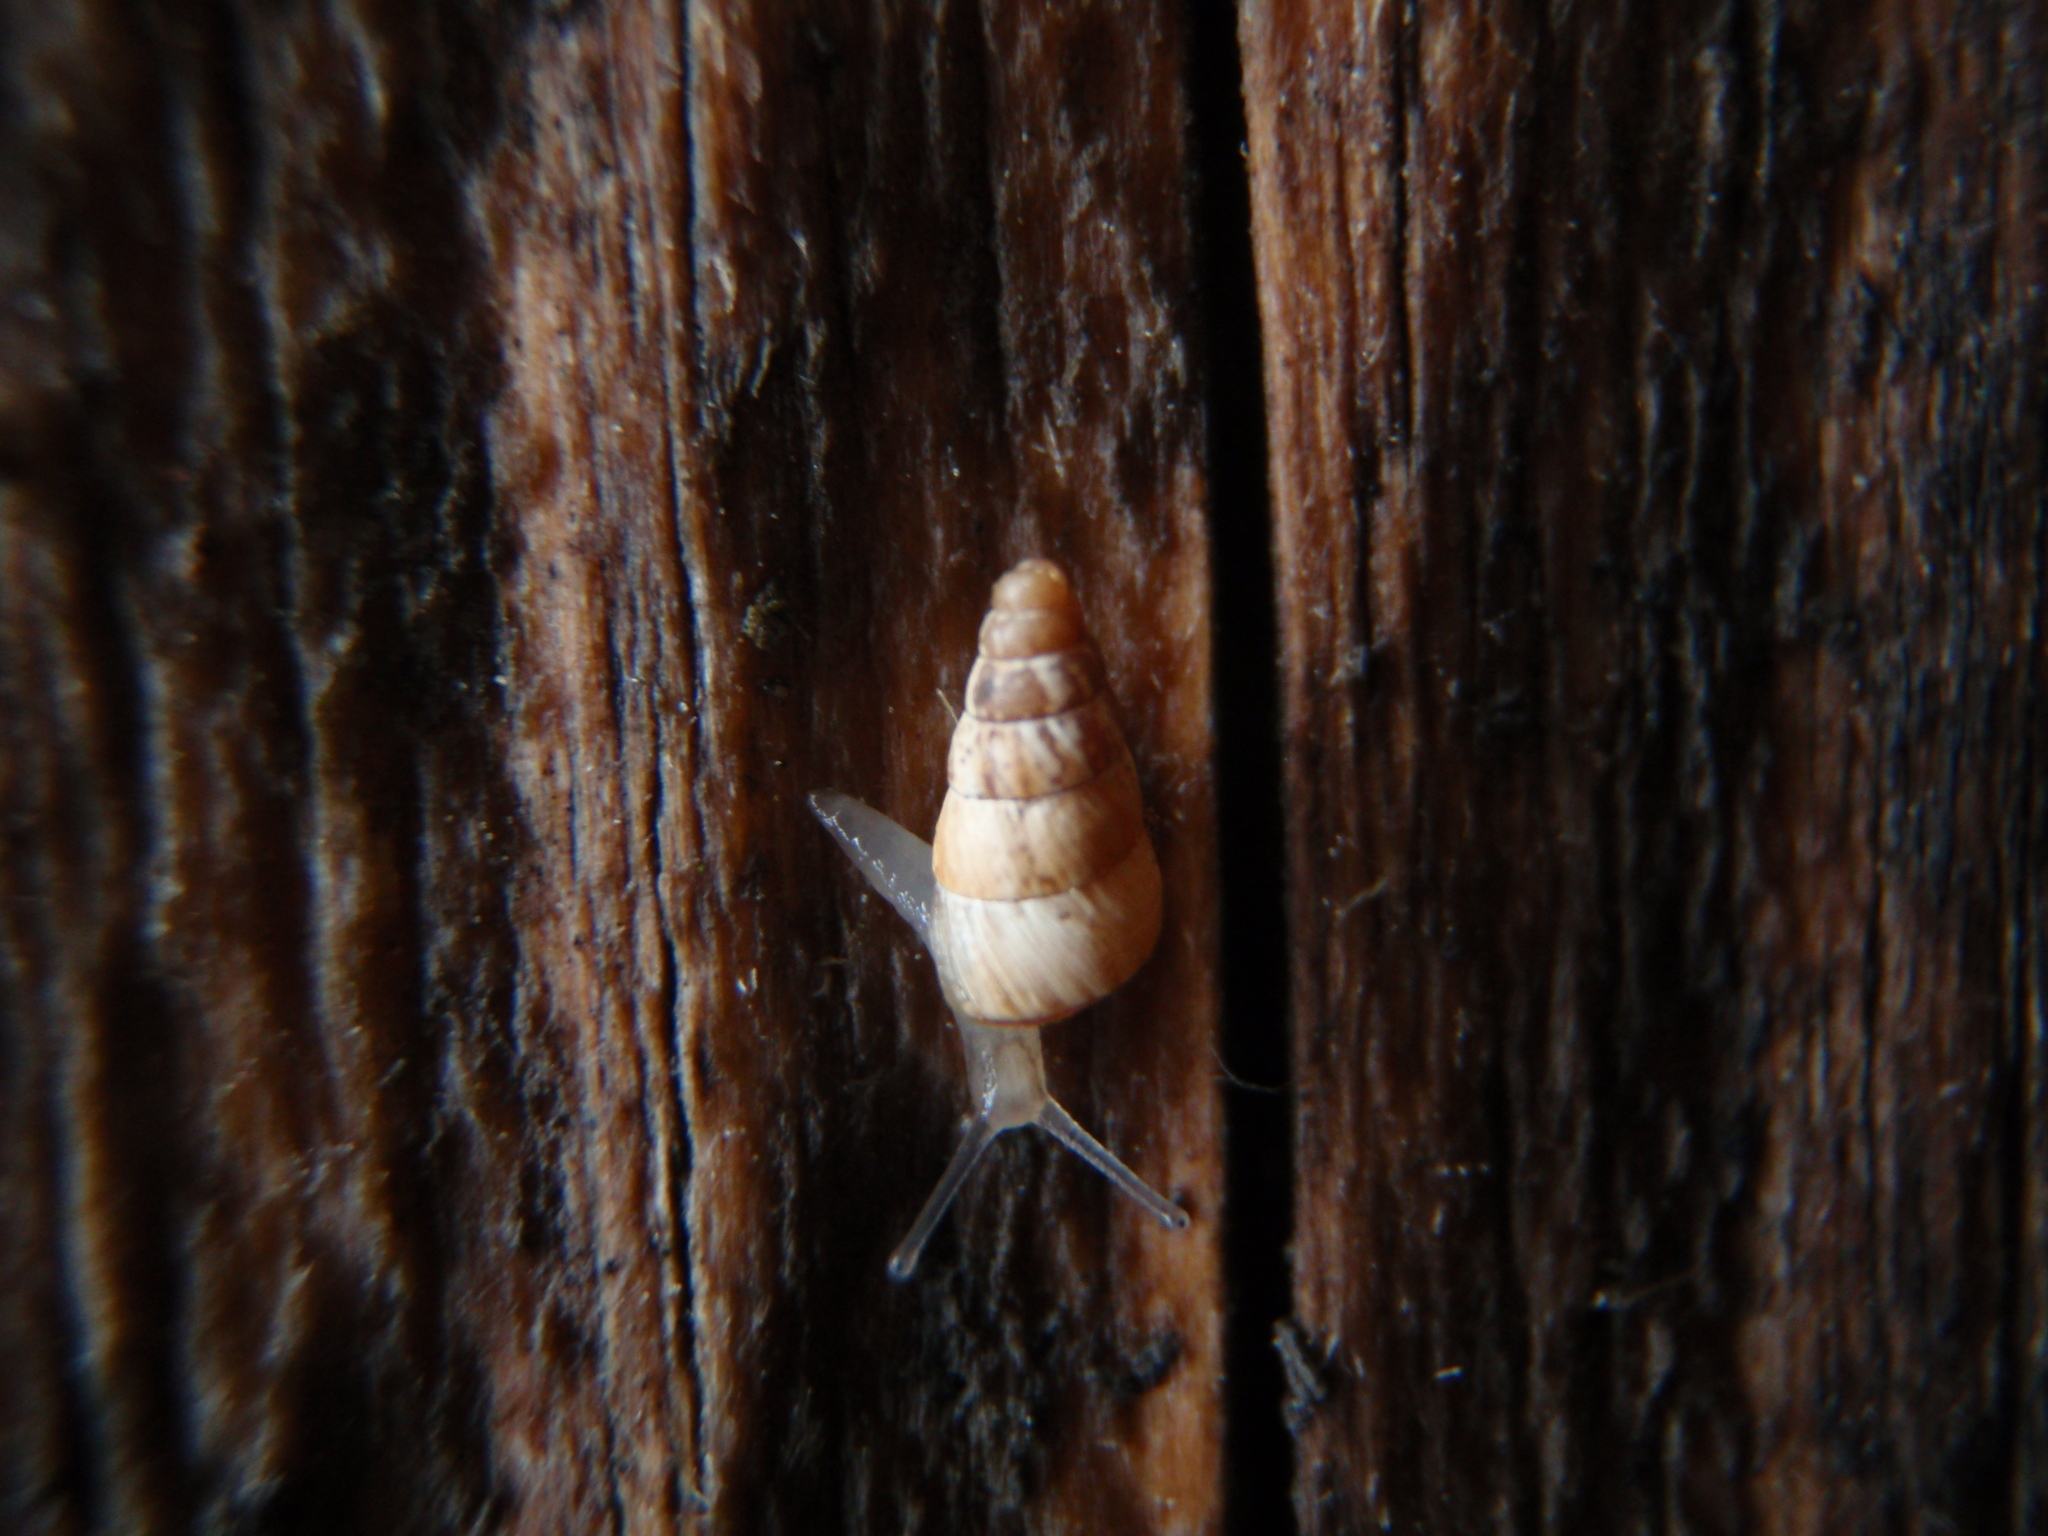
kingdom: Animalia
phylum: Mollusca
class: Gastropoda
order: Stylommatophora
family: Geomitridae
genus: Cochlicella
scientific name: Cochlicella acuta
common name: Pointed snail
